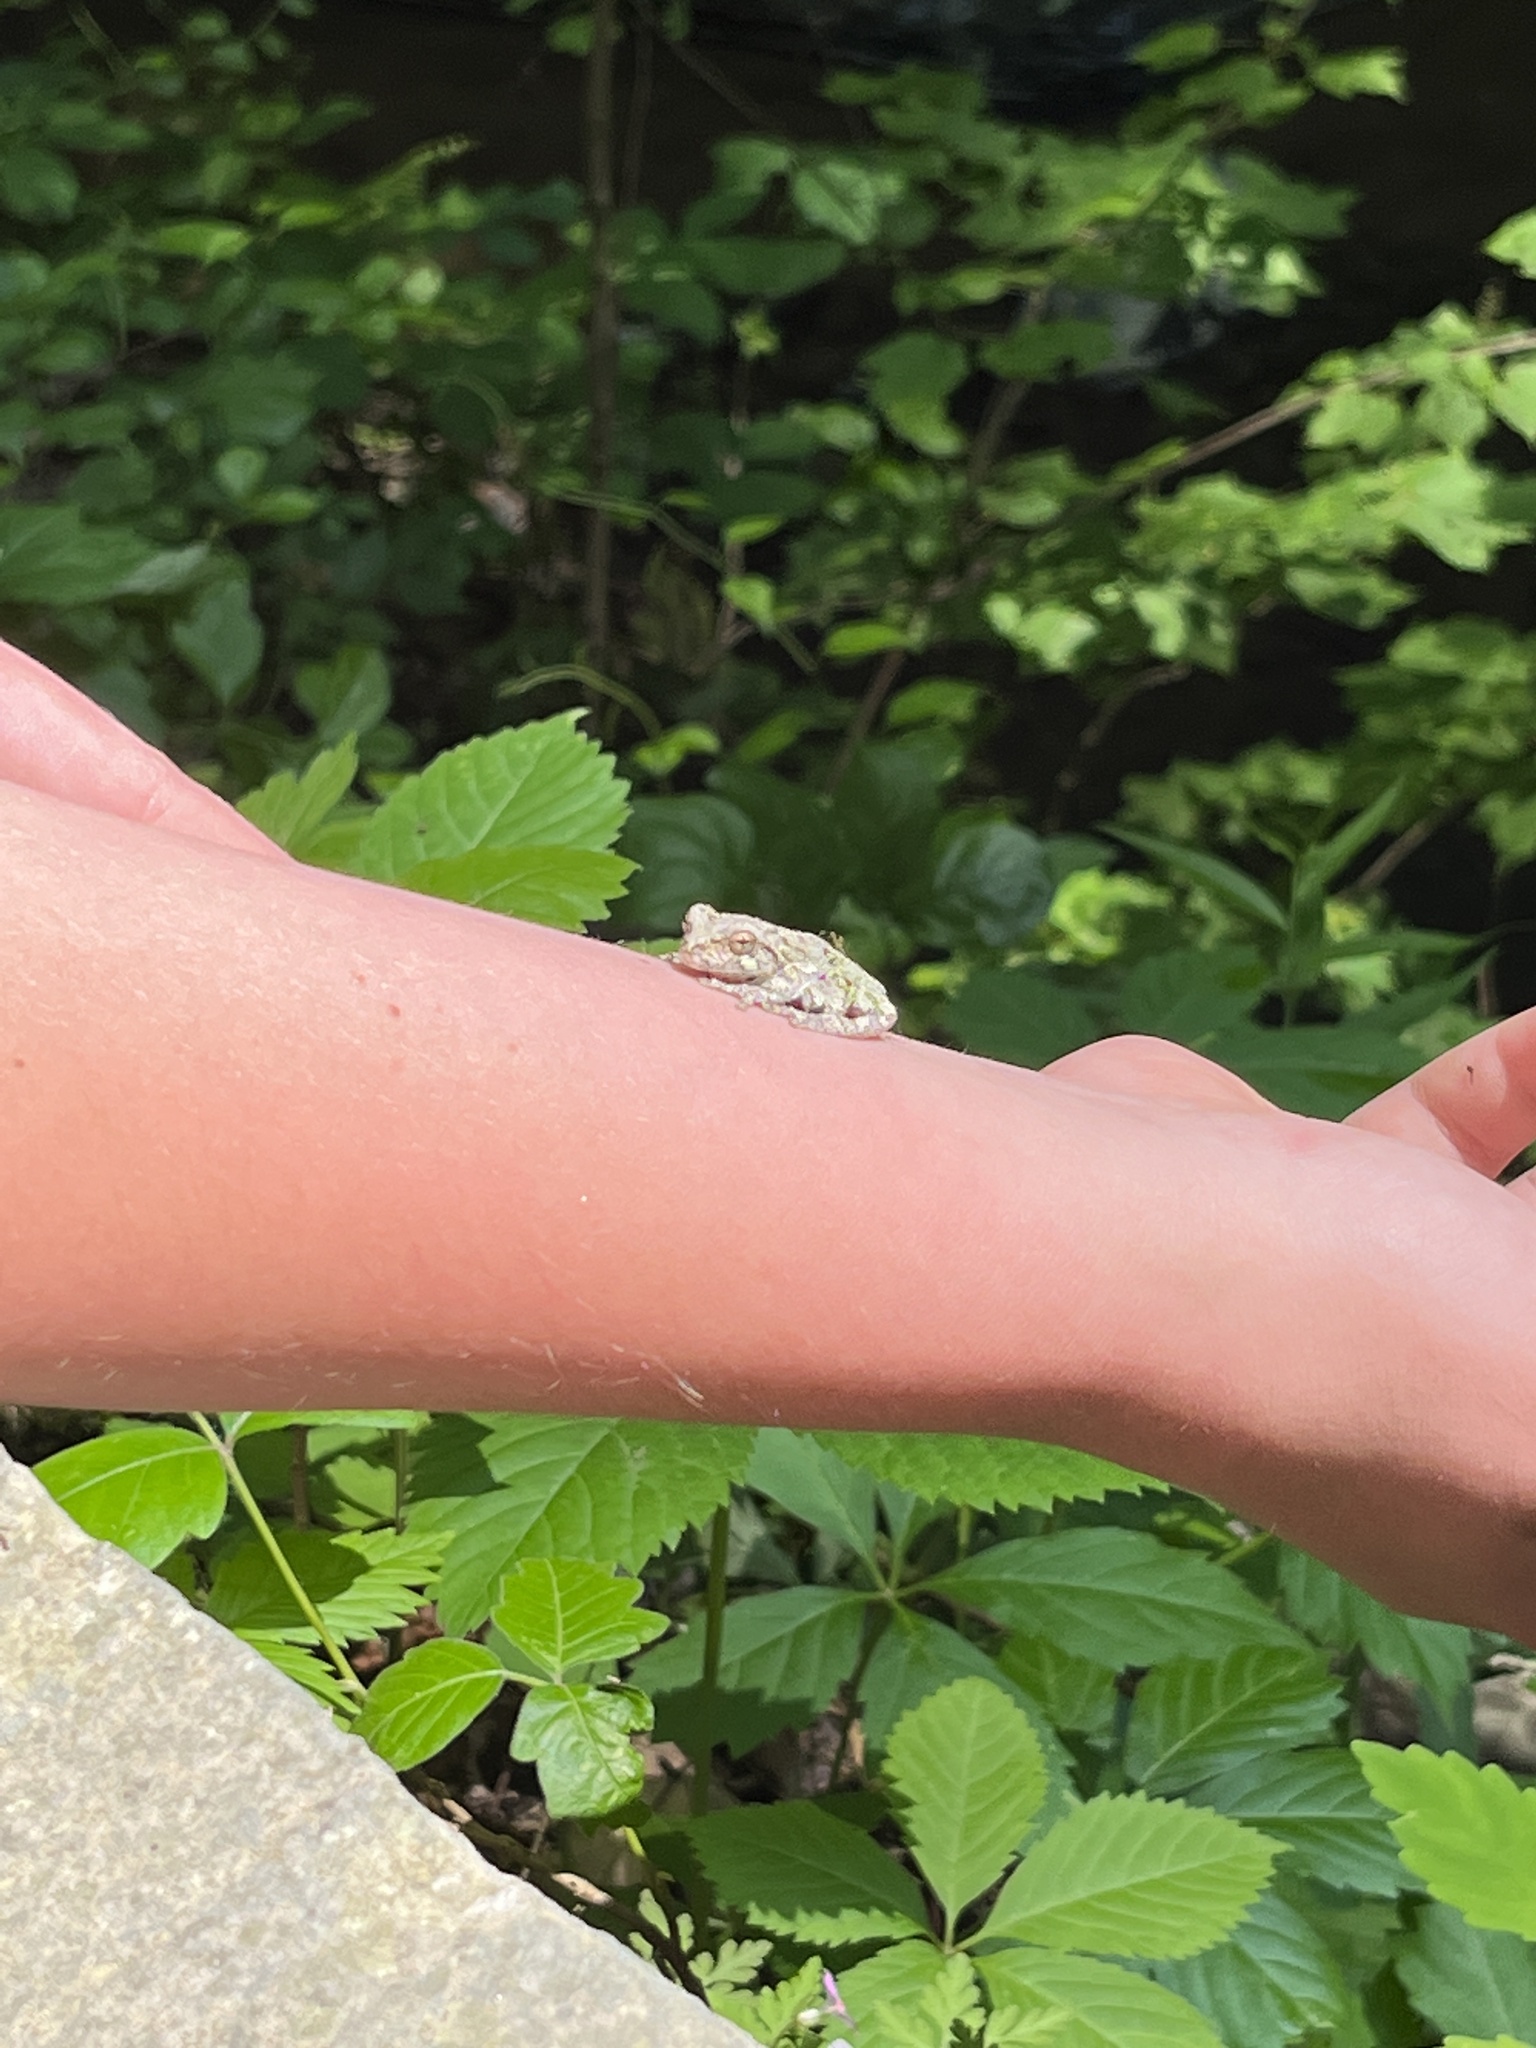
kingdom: Animalia
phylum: Chordata
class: Amphibia
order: Anura
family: Hylidae
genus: Dryophytes
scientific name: Dryophytes versicolor
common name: Gray treefrog
